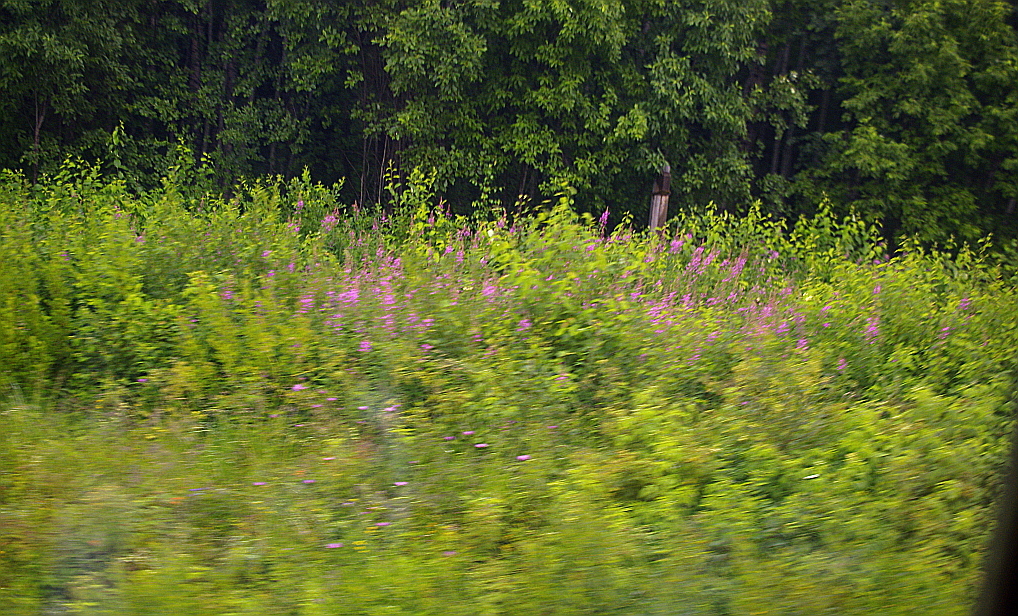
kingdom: Plantae
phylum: Tracheophyta
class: Magnoliopsida
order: Myrtales
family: Onagraceae
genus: Chamaenerion
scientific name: Chamaenerion angustifolium
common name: Fireweed
